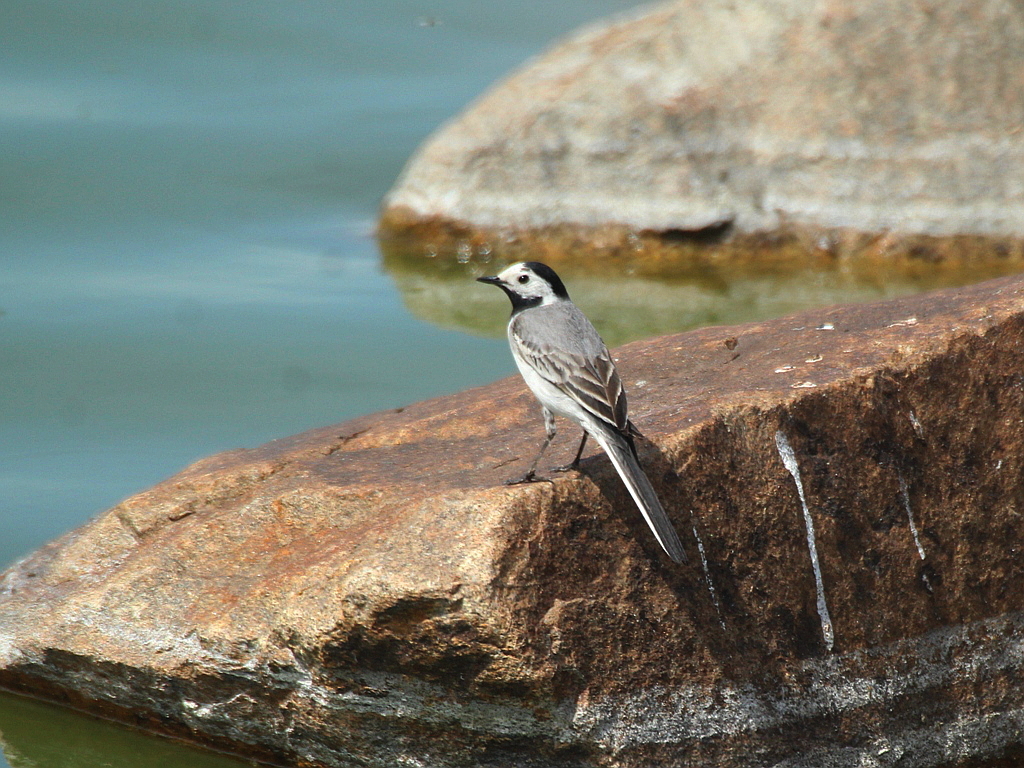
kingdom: Animalia
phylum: Chordata
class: Aves
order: Passeriformes
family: Motacillidae
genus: Motacilla
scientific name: Motacilla alba
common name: White wagtail
